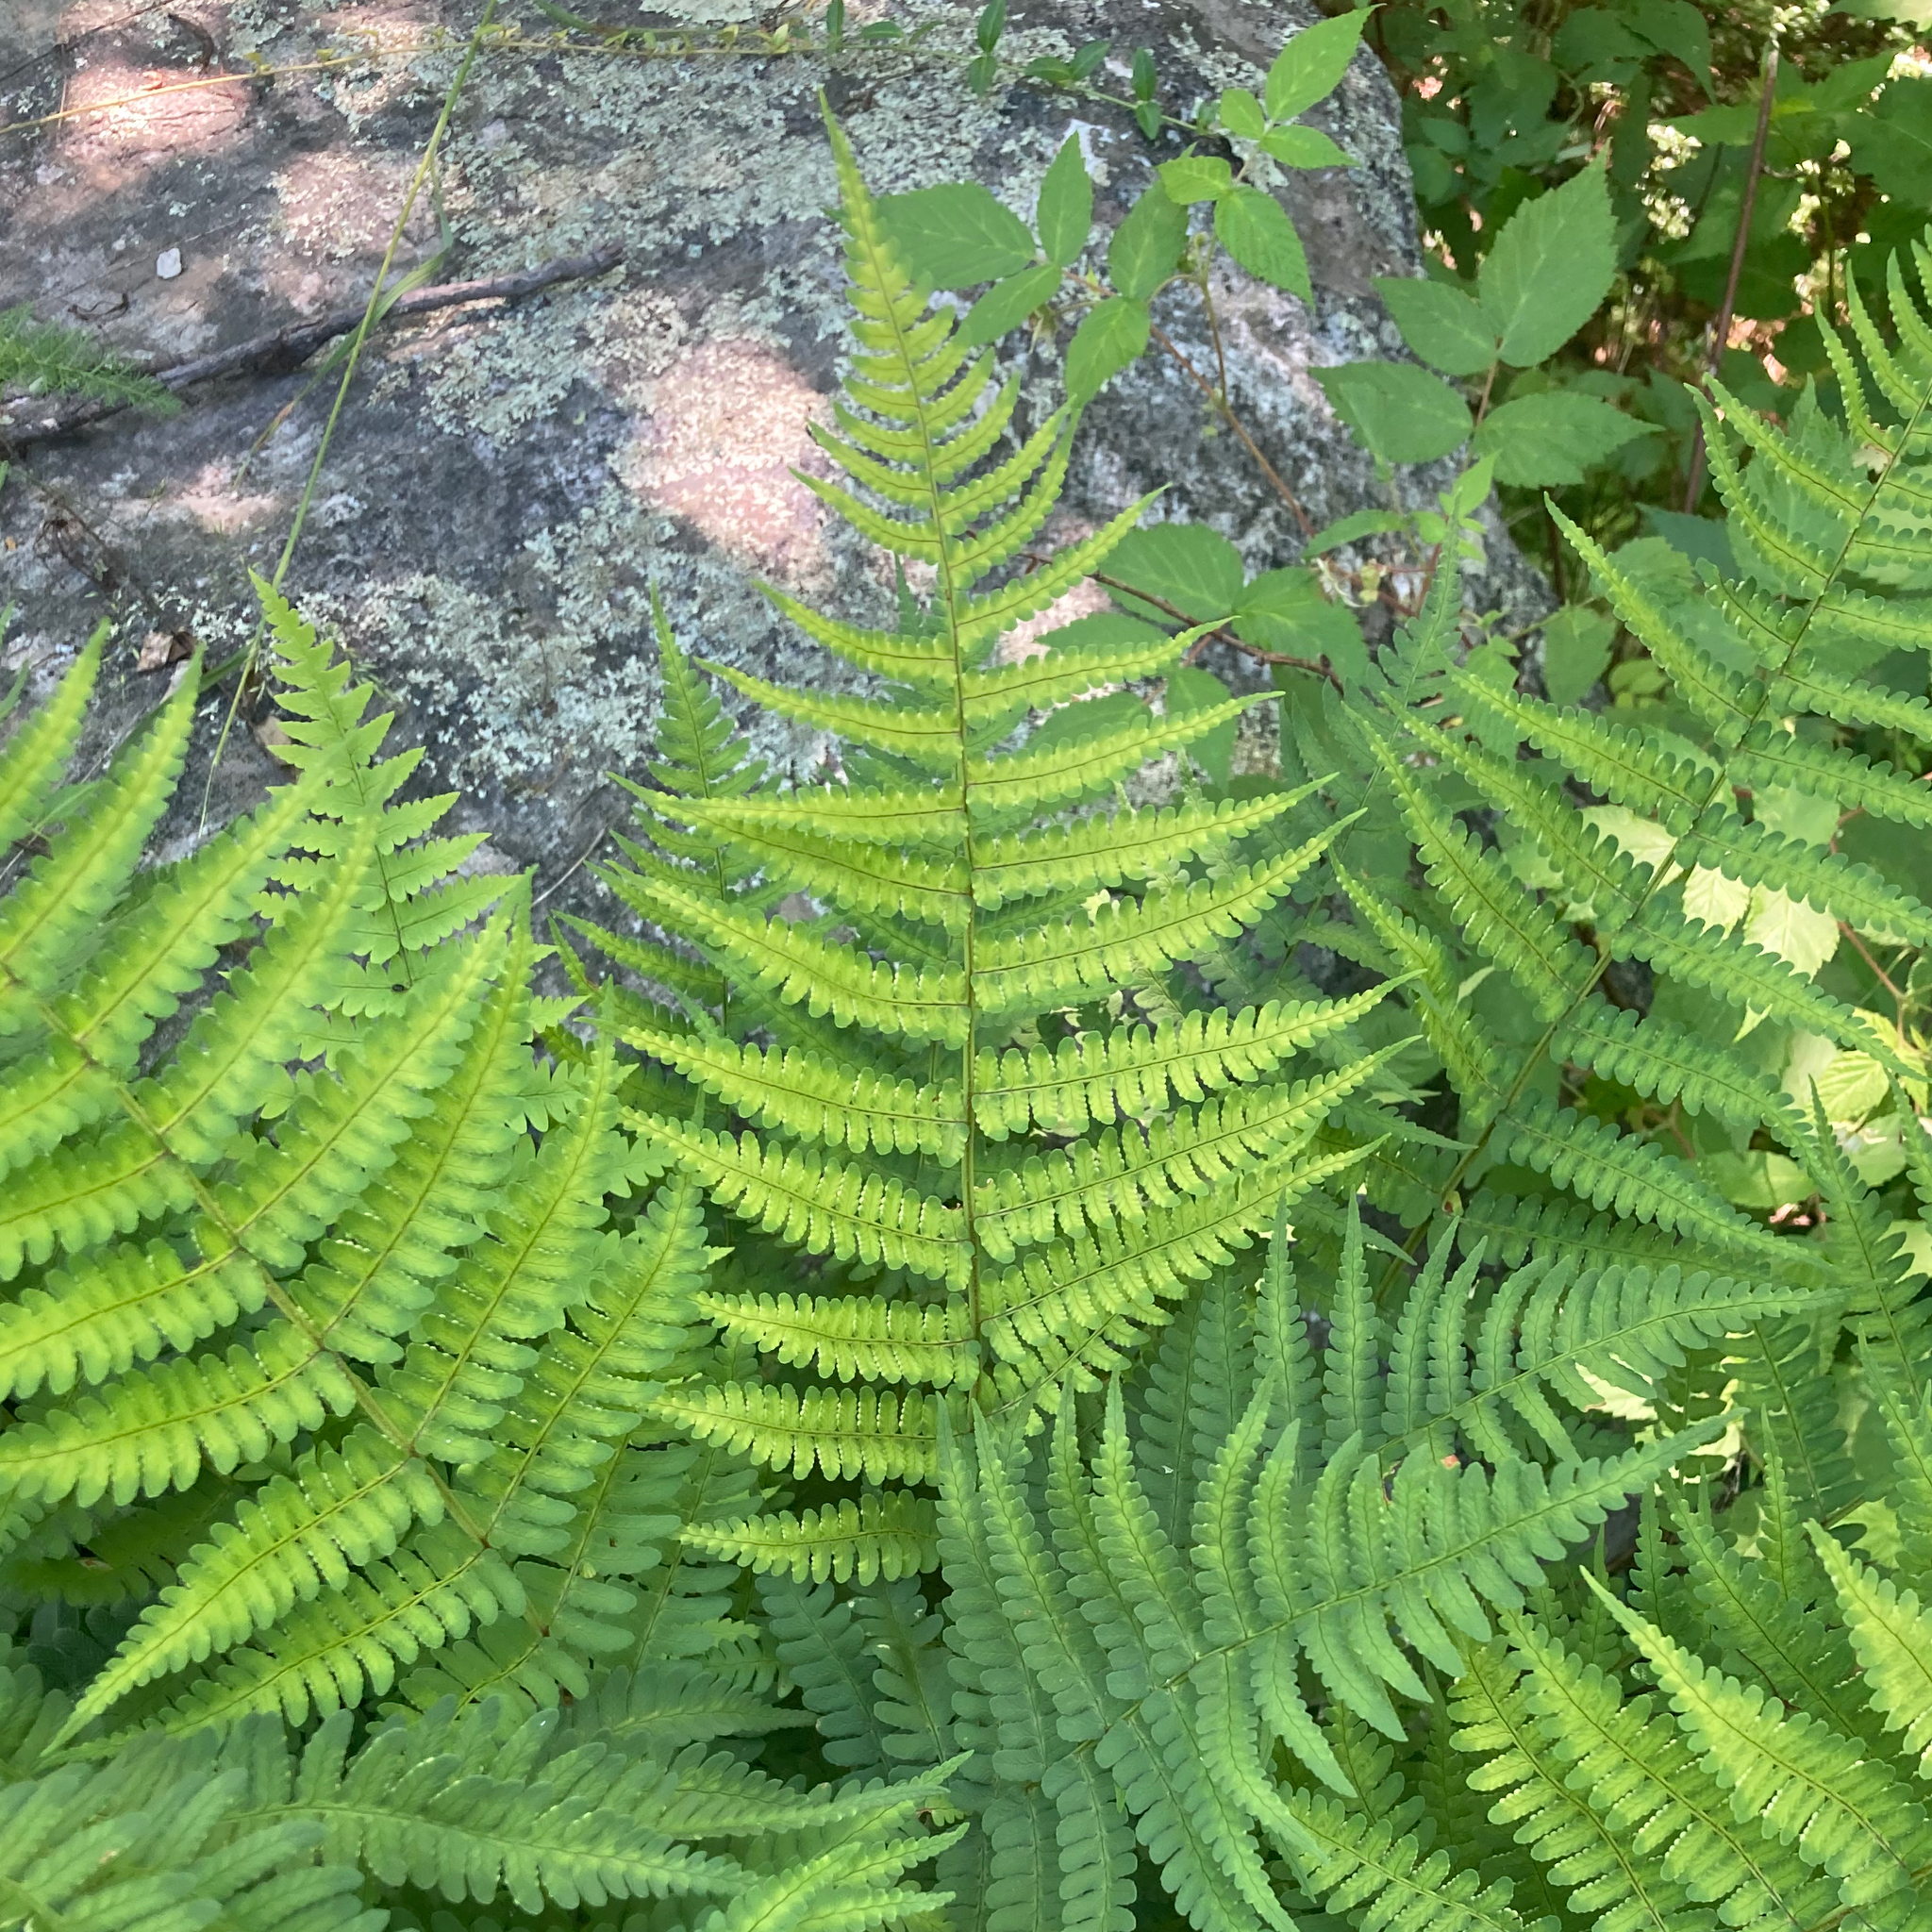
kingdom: Plantae
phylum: Tracheophyta
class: Polypodiopsida
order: Polypodiales
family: Dryopteridaceae
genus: Dryopteris
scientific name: Dryopteris marginalis
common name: Marginal wood fern
